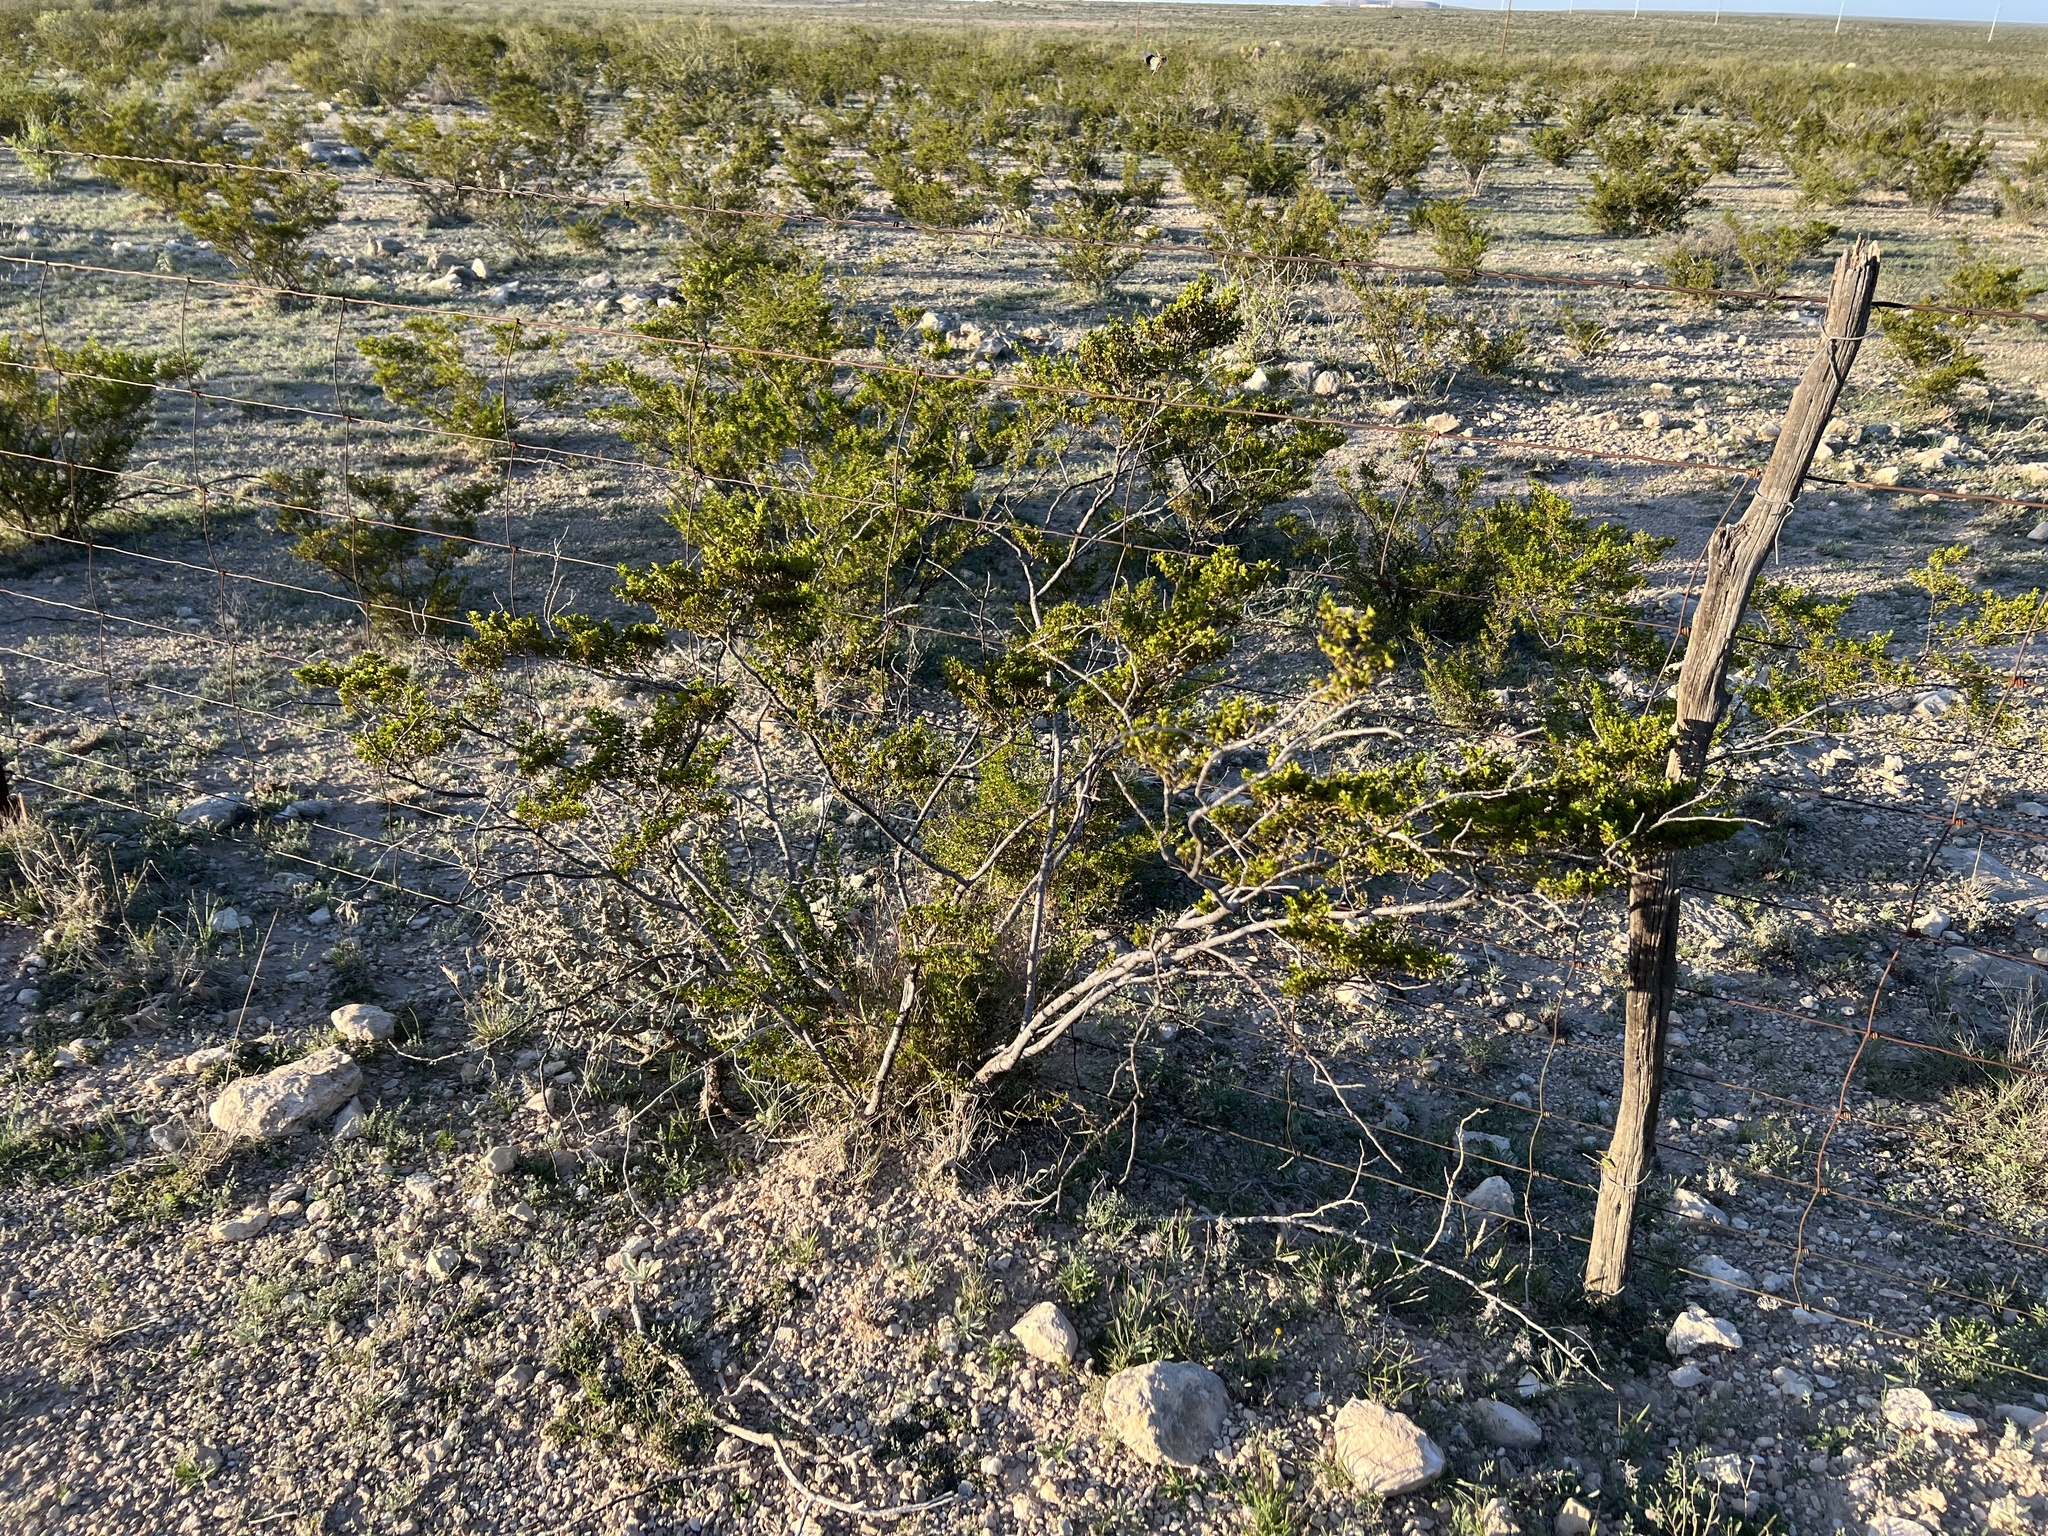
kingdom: Plantae
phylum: Tracheophyta
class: Magnoliopsida
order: Zygophyllales
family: Zygophyllaceae
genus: Larrea
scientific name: Larrea tridentata
